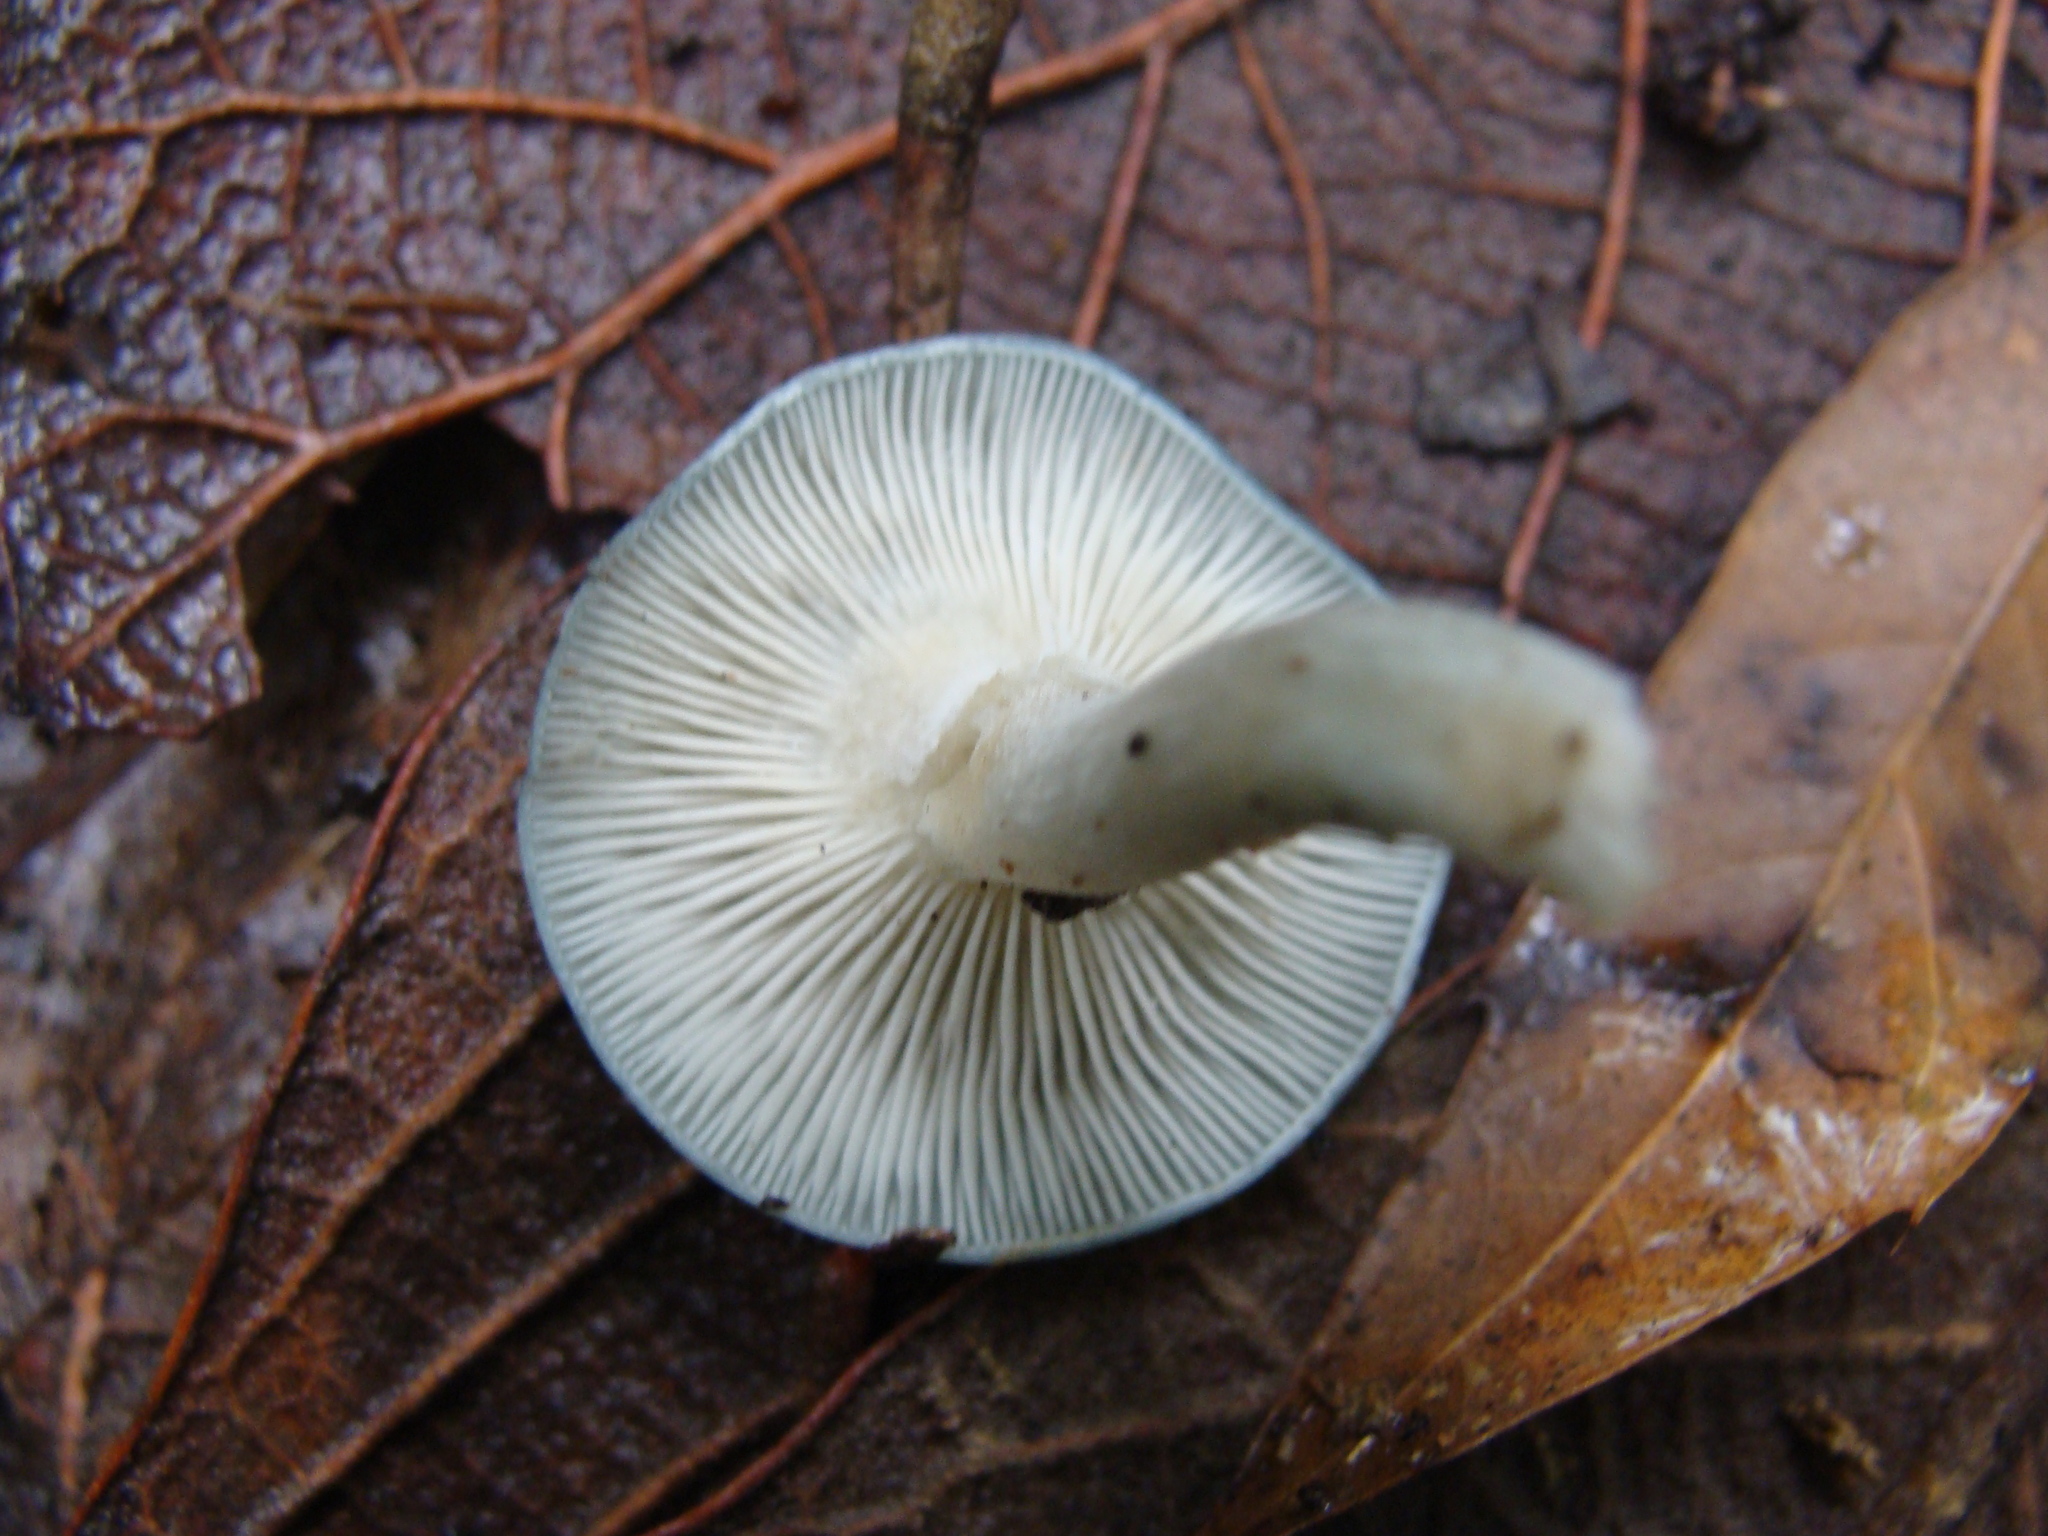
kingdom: Fungi
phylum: Basidiomycota
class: Agaricomycetes
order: Agaricales
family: Tricholomataceae
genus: Collybia
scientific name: Collybia
